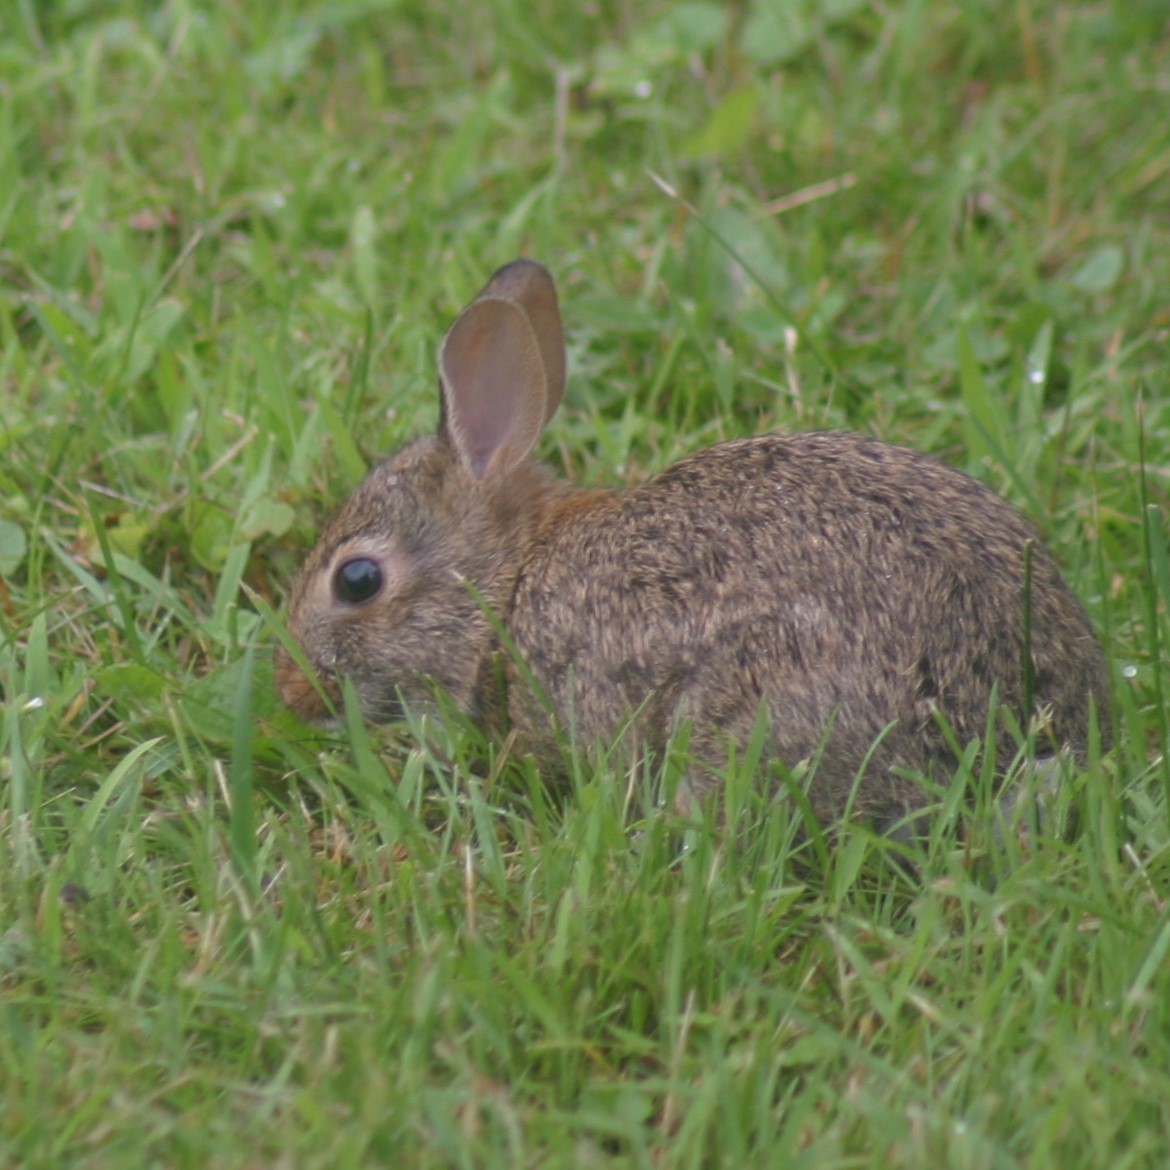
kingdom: Animalia
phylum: Chordata
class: Mammalia
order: Lagomorpha
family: Leporidae
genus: Sylvilagus
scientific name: Sylvilagus floridanus
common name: Eastern cottontail
